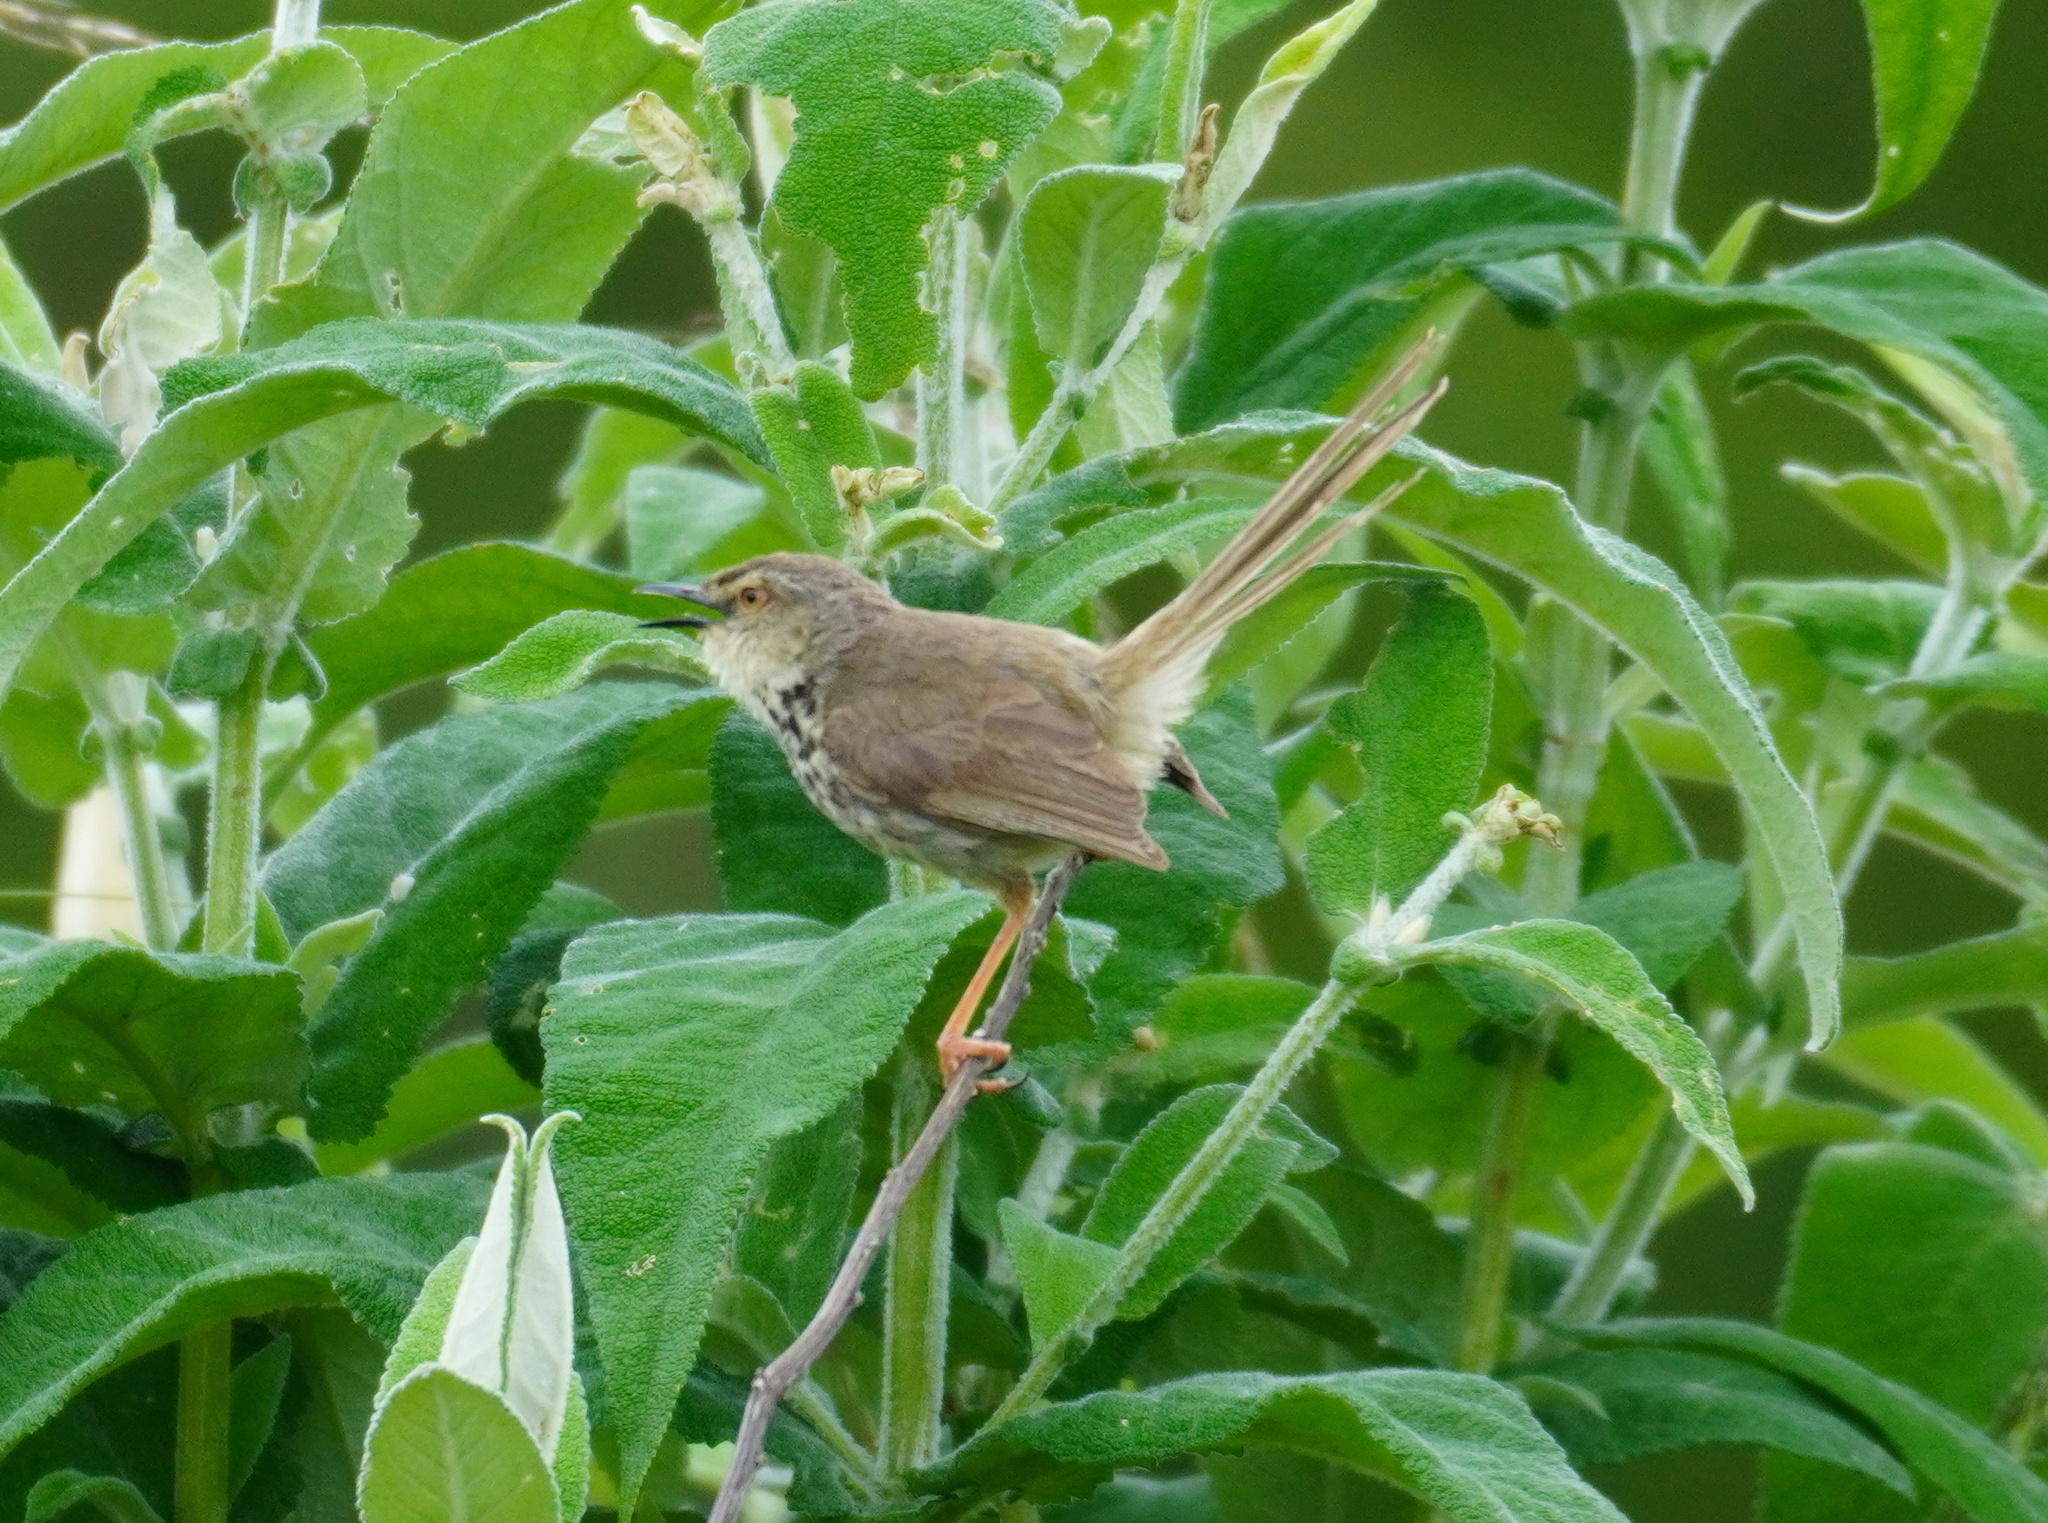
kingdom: Animalia
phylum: Chordata
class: Aves
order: Passeriformes
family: Cisticolidae
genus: Prinia
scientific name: Prinia maculosa
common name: Karoo prinia
